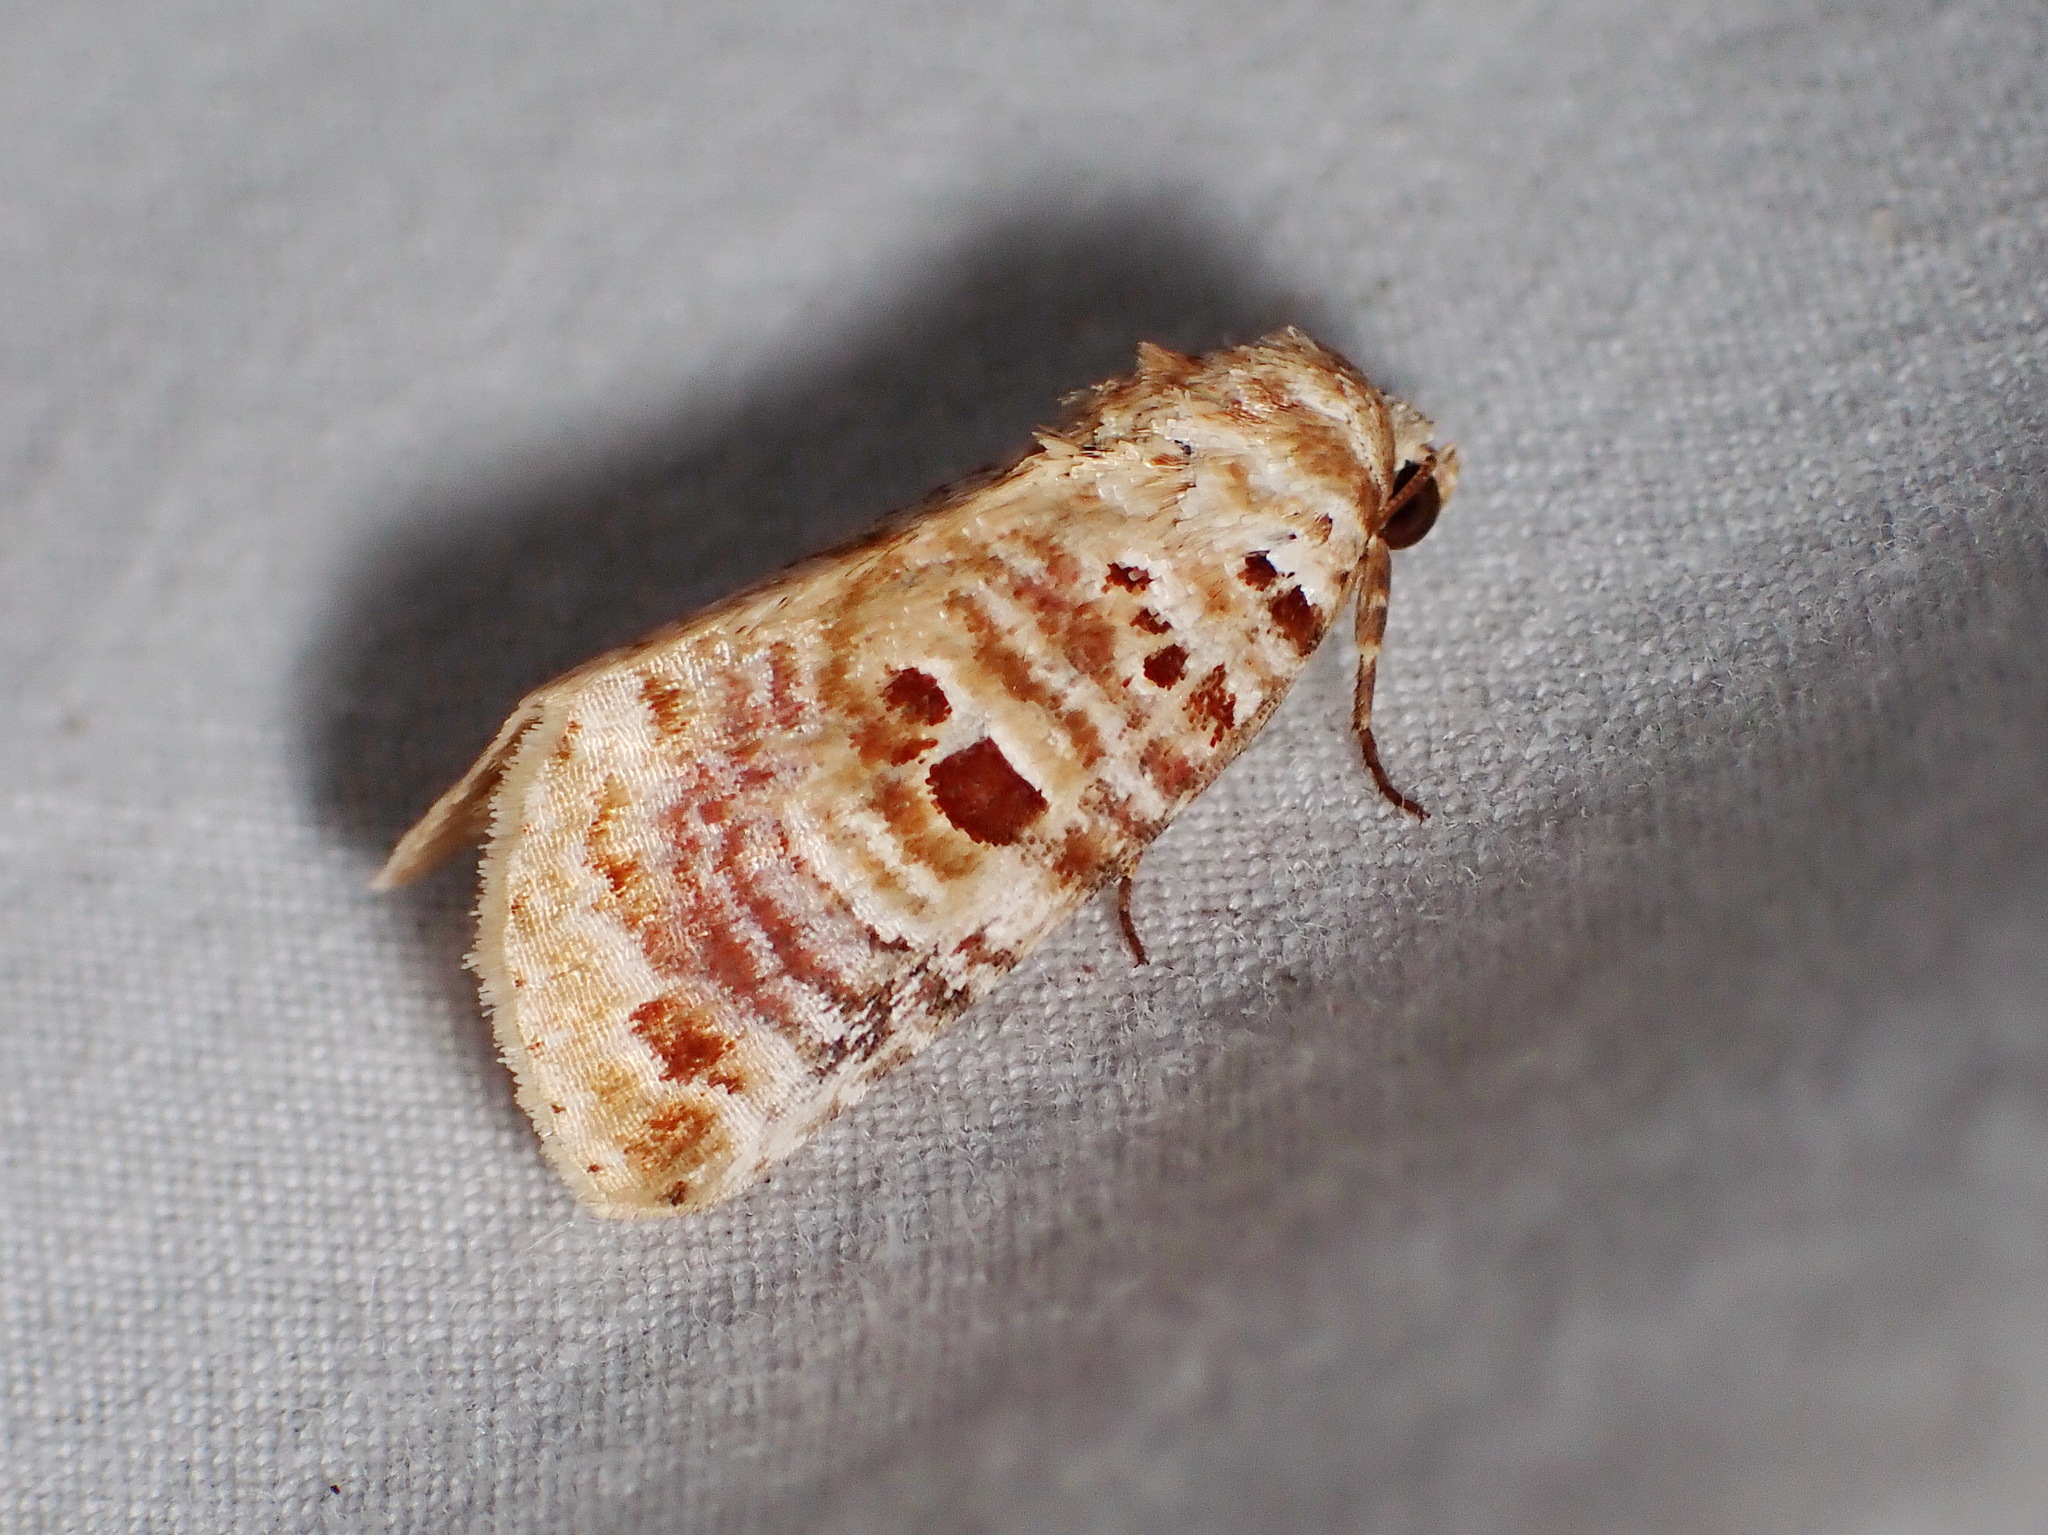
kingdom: Animalia
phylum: Arthropoda
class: Insecta
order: Lepidoptera
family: Noctuidae
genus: Diastema
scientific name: Diastema tigris
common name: Lantana moth
